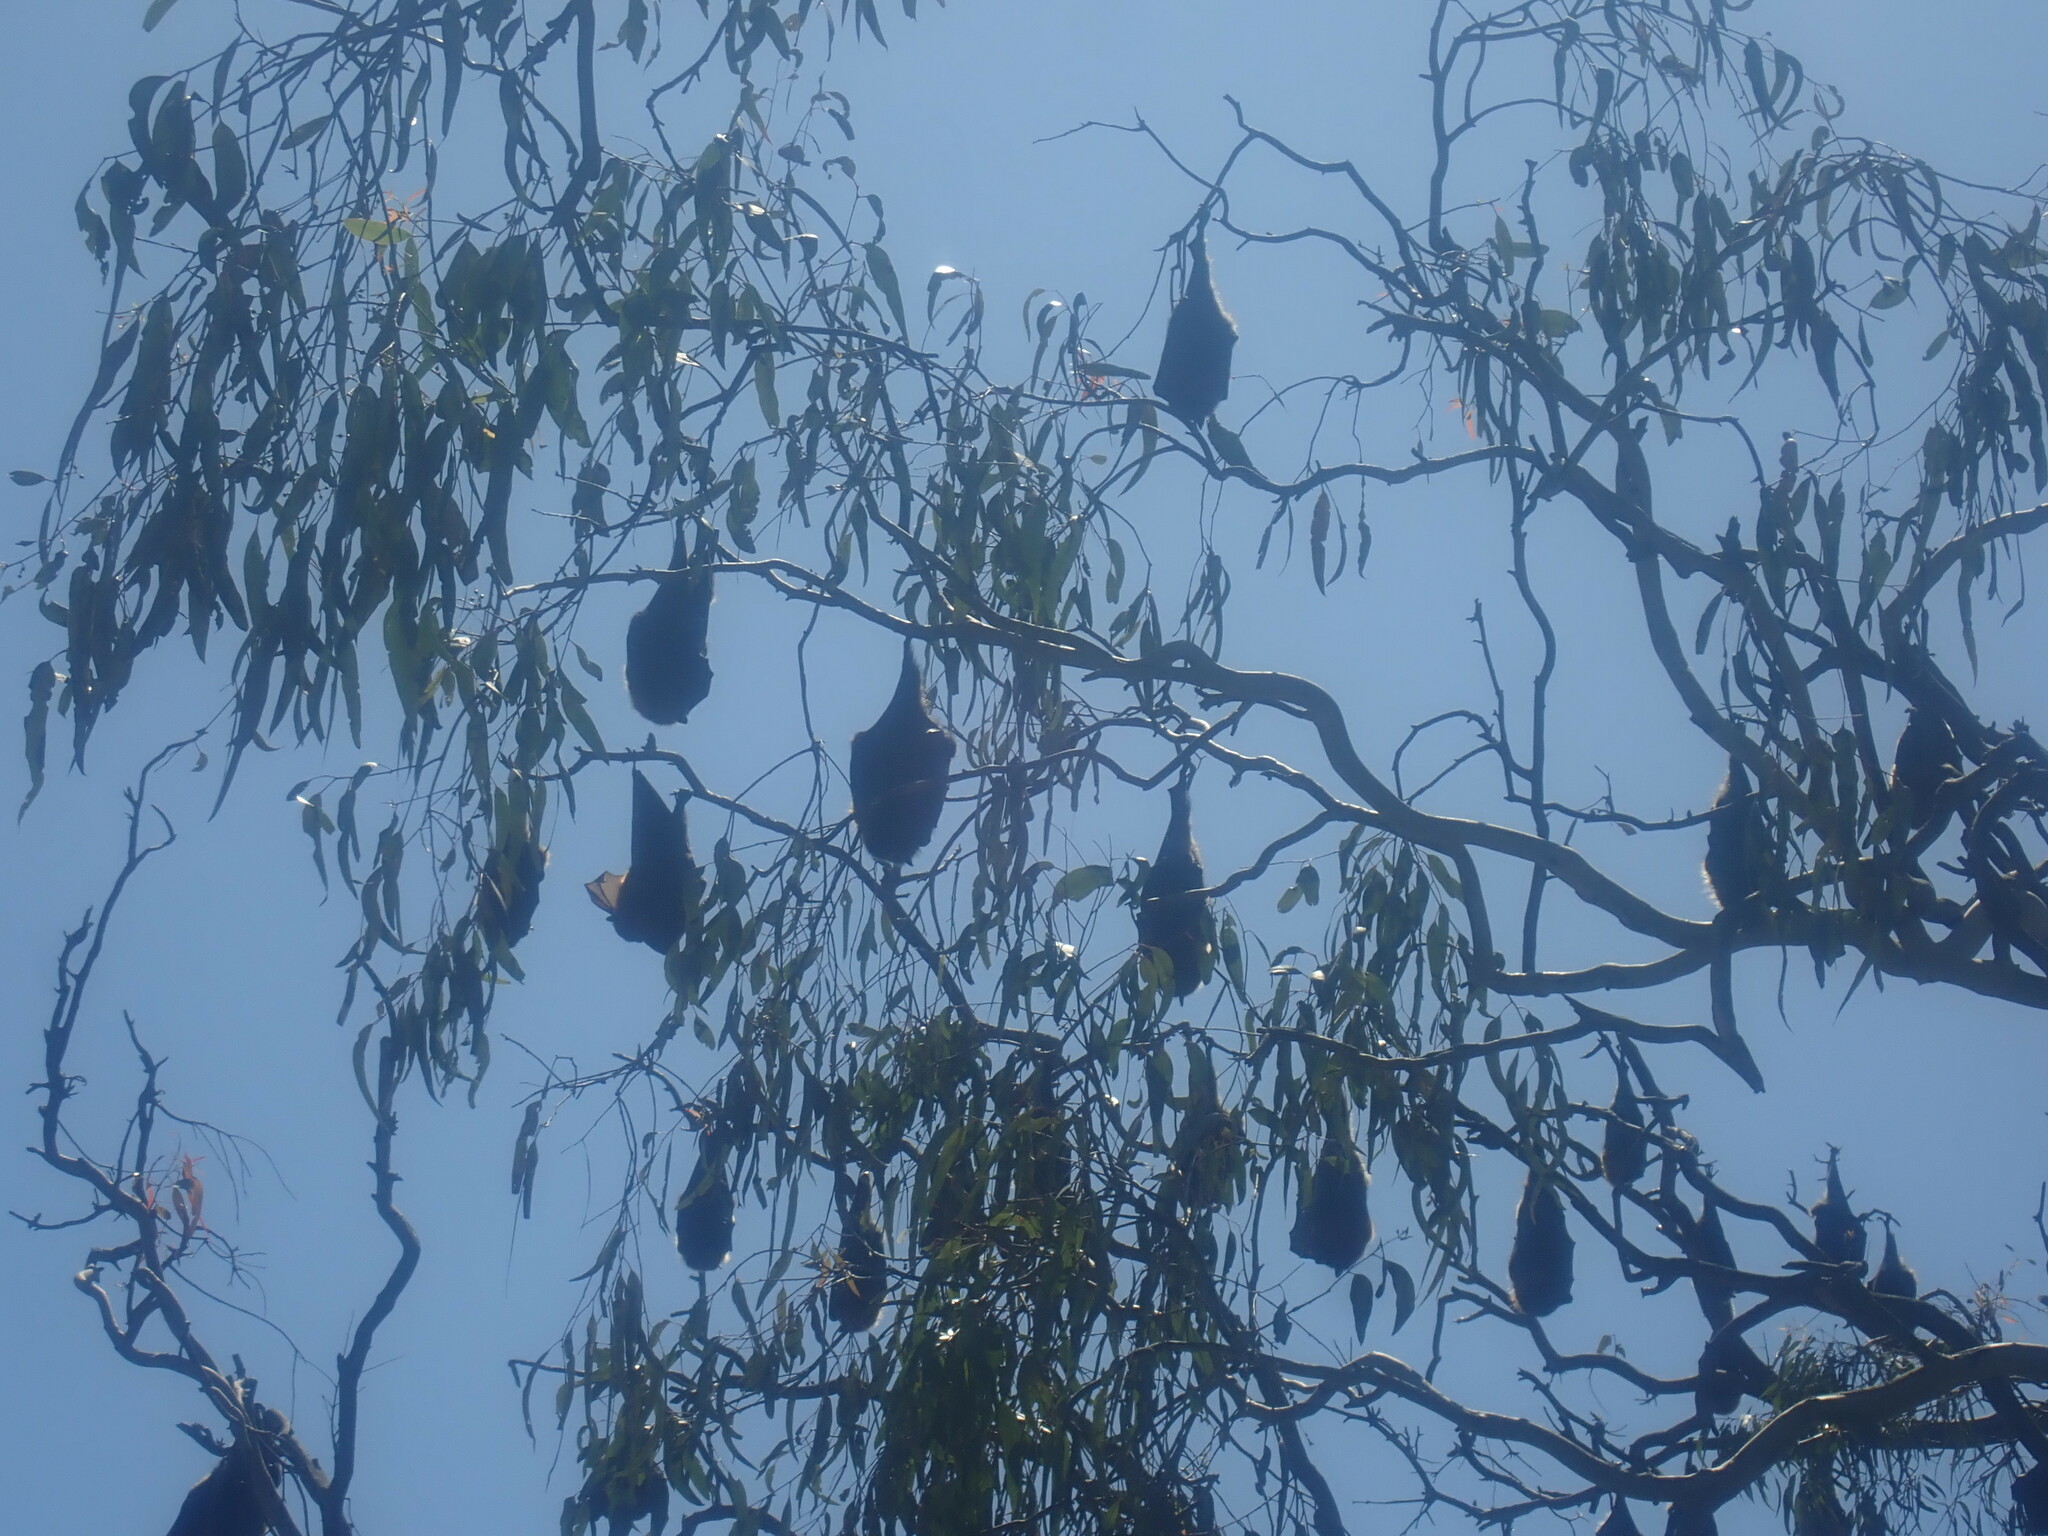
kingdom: Animalia
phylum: Chordata
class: Mammalia
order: Chiroptera
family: Pteropodidae
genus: Pteropus
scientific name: Pteropus poliocephalus
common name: Gray-headed flying fox
